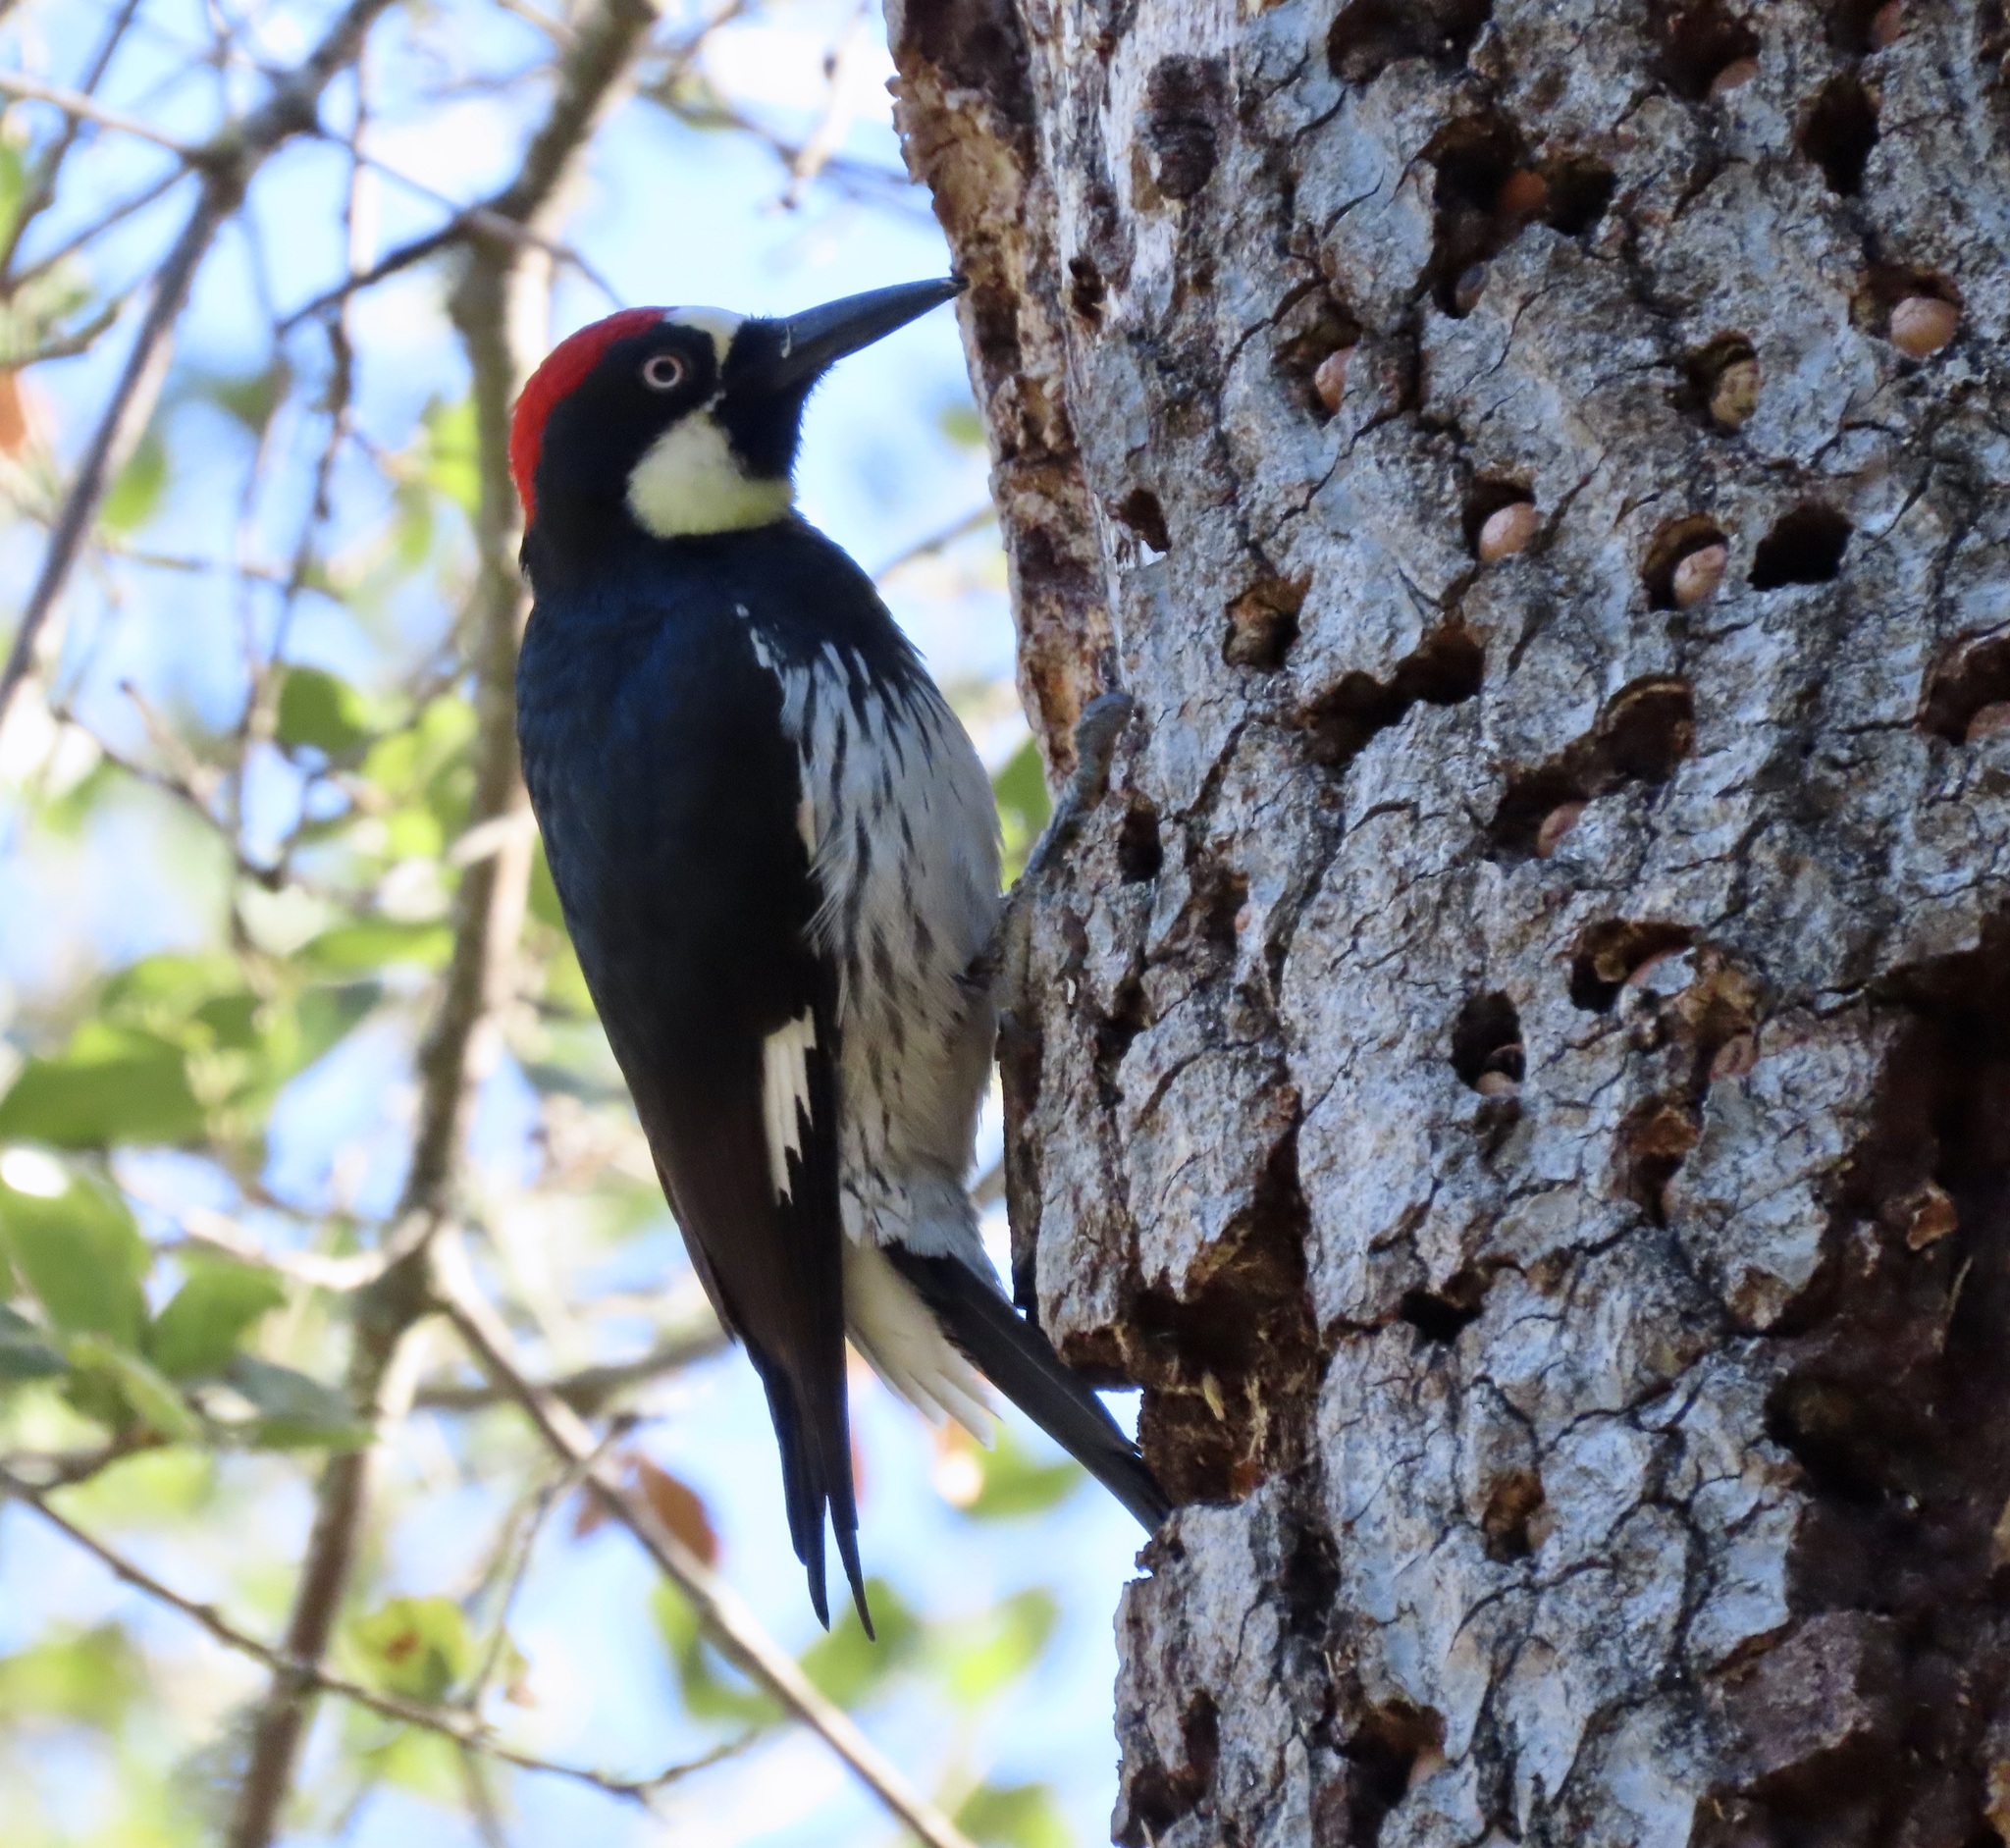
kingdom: Animalia
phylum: Chordata
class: Aves
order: Piciformes
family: Picidae
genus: Melanerpes
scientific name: Melanerpes formicivorus
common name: Acorn woodpecker
